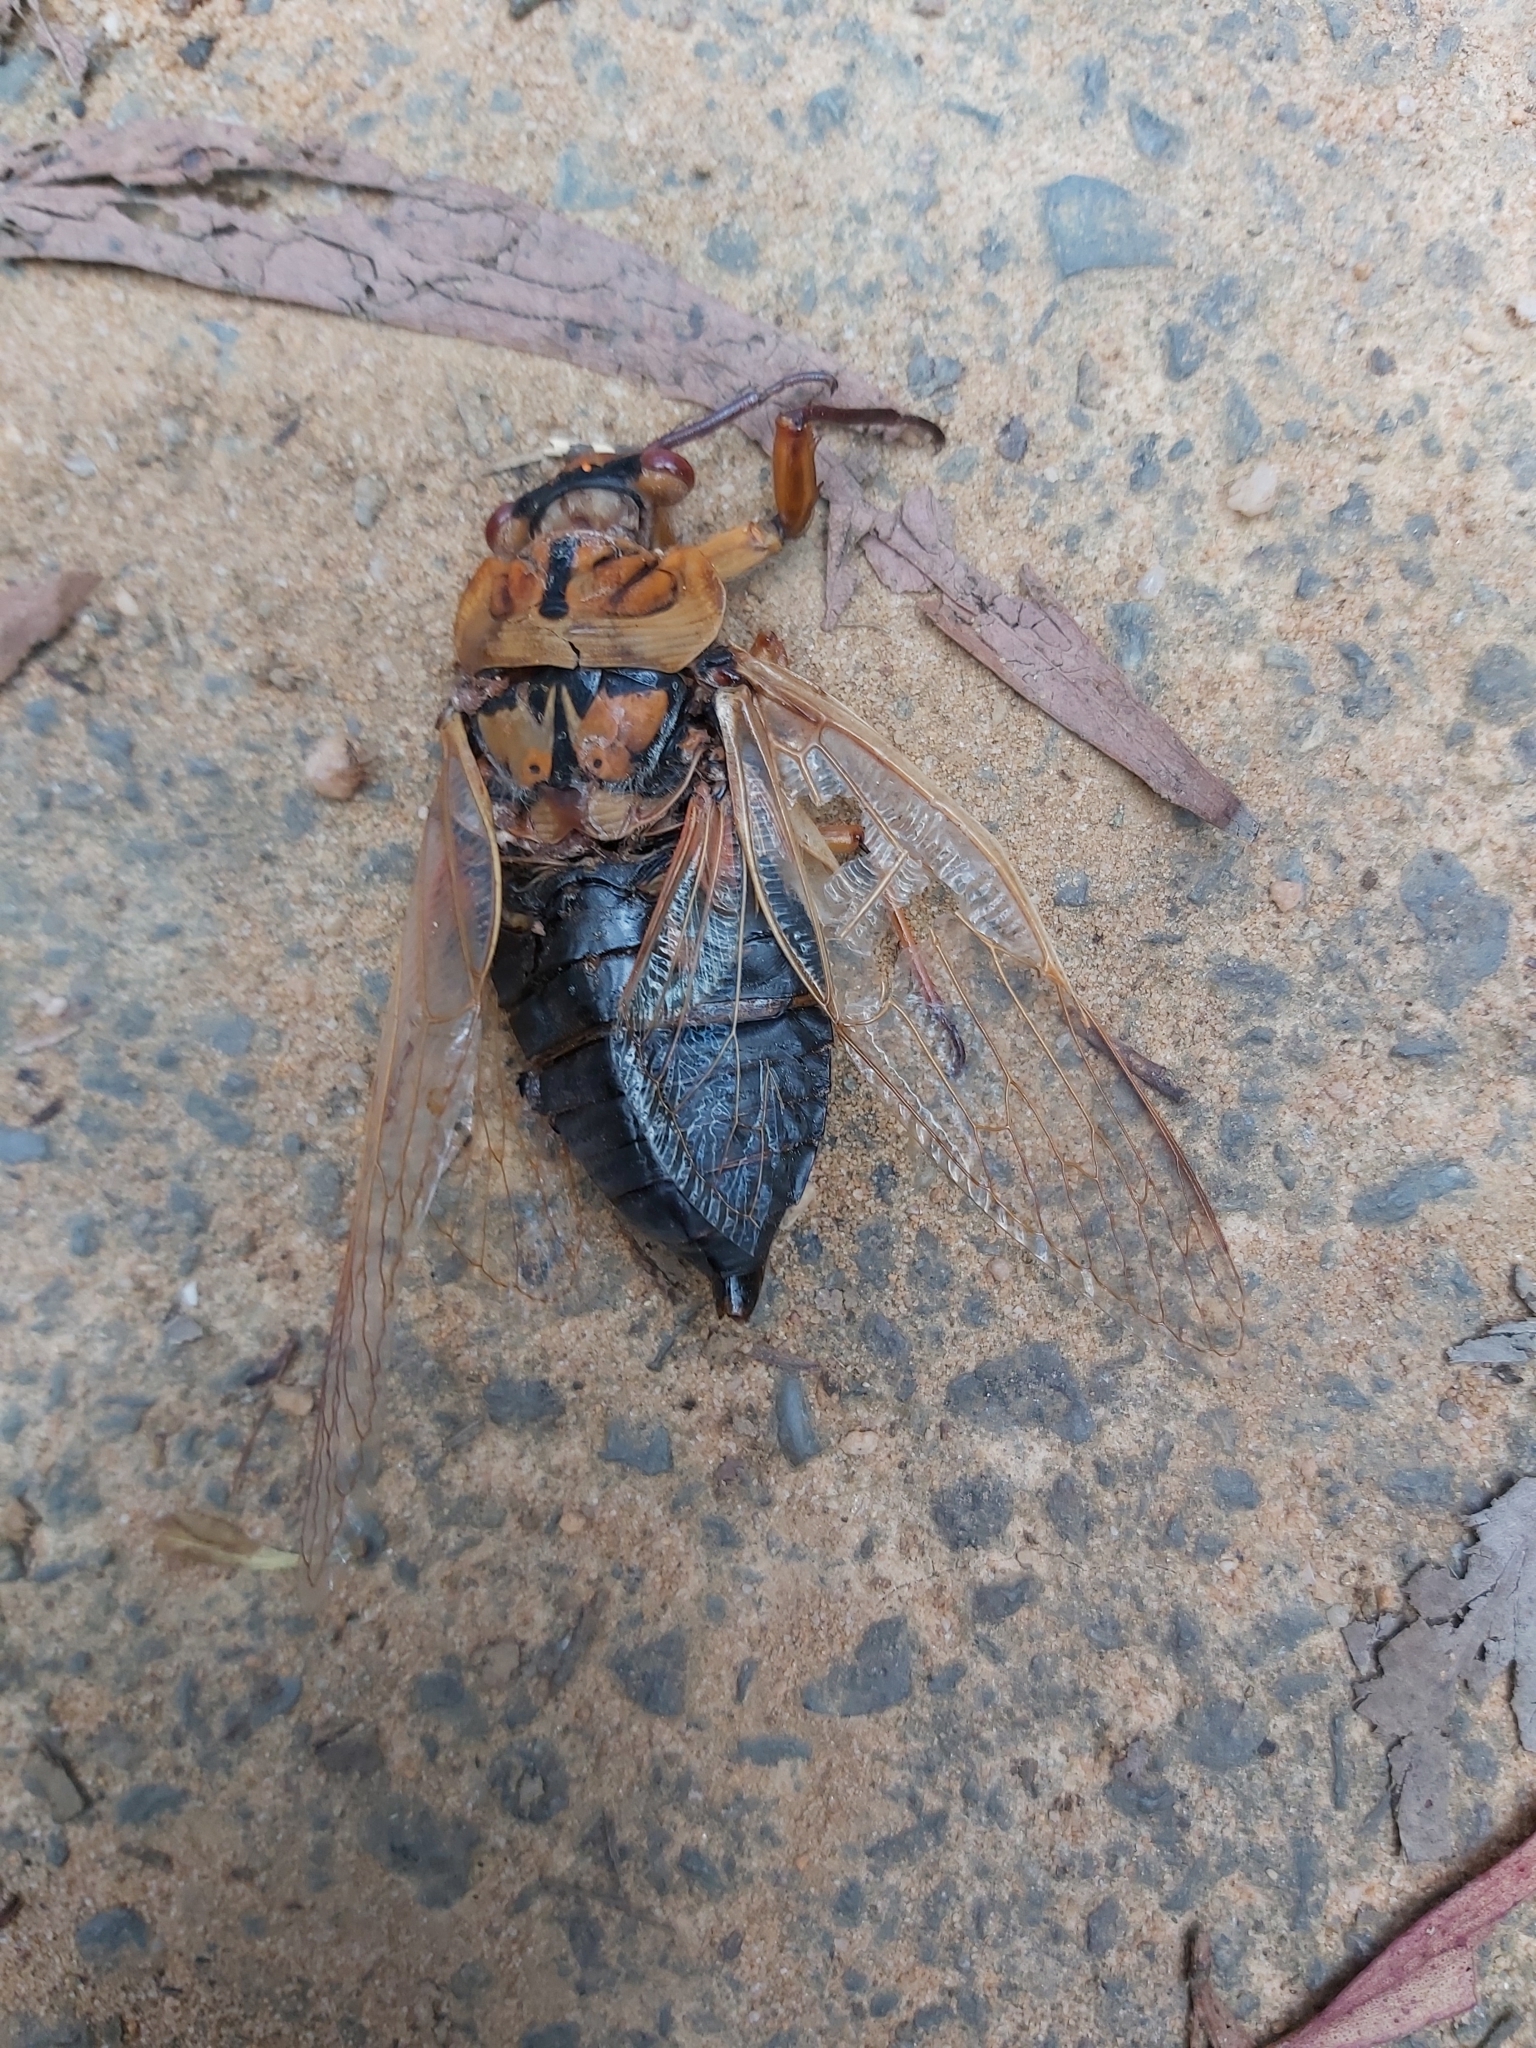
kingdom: Animalia
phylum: Arthropoda
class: Insecta
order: Hemiptera
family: Cicadidae
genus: Cyclochila
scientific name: Cyclochila australasiae
